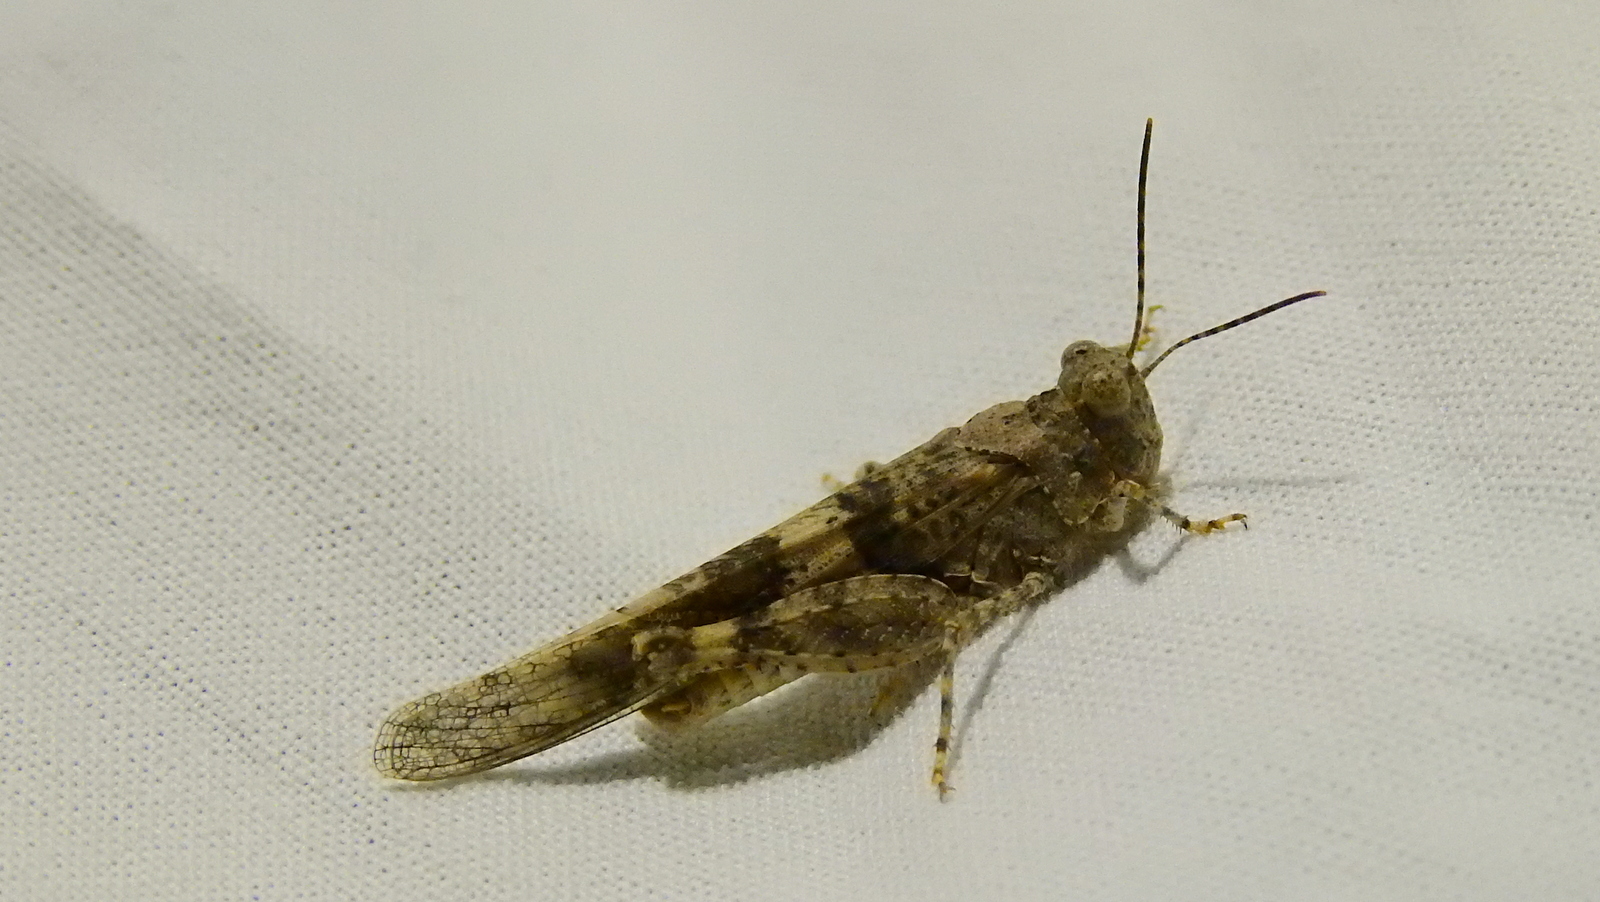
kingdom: Animalia
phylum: Arthropoda
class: Insecta
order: Orthoptera
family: Acrididae
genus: Trimerotropis
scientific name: Trimerotropis pallidipennis
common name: Pallid-winged grasshopper
